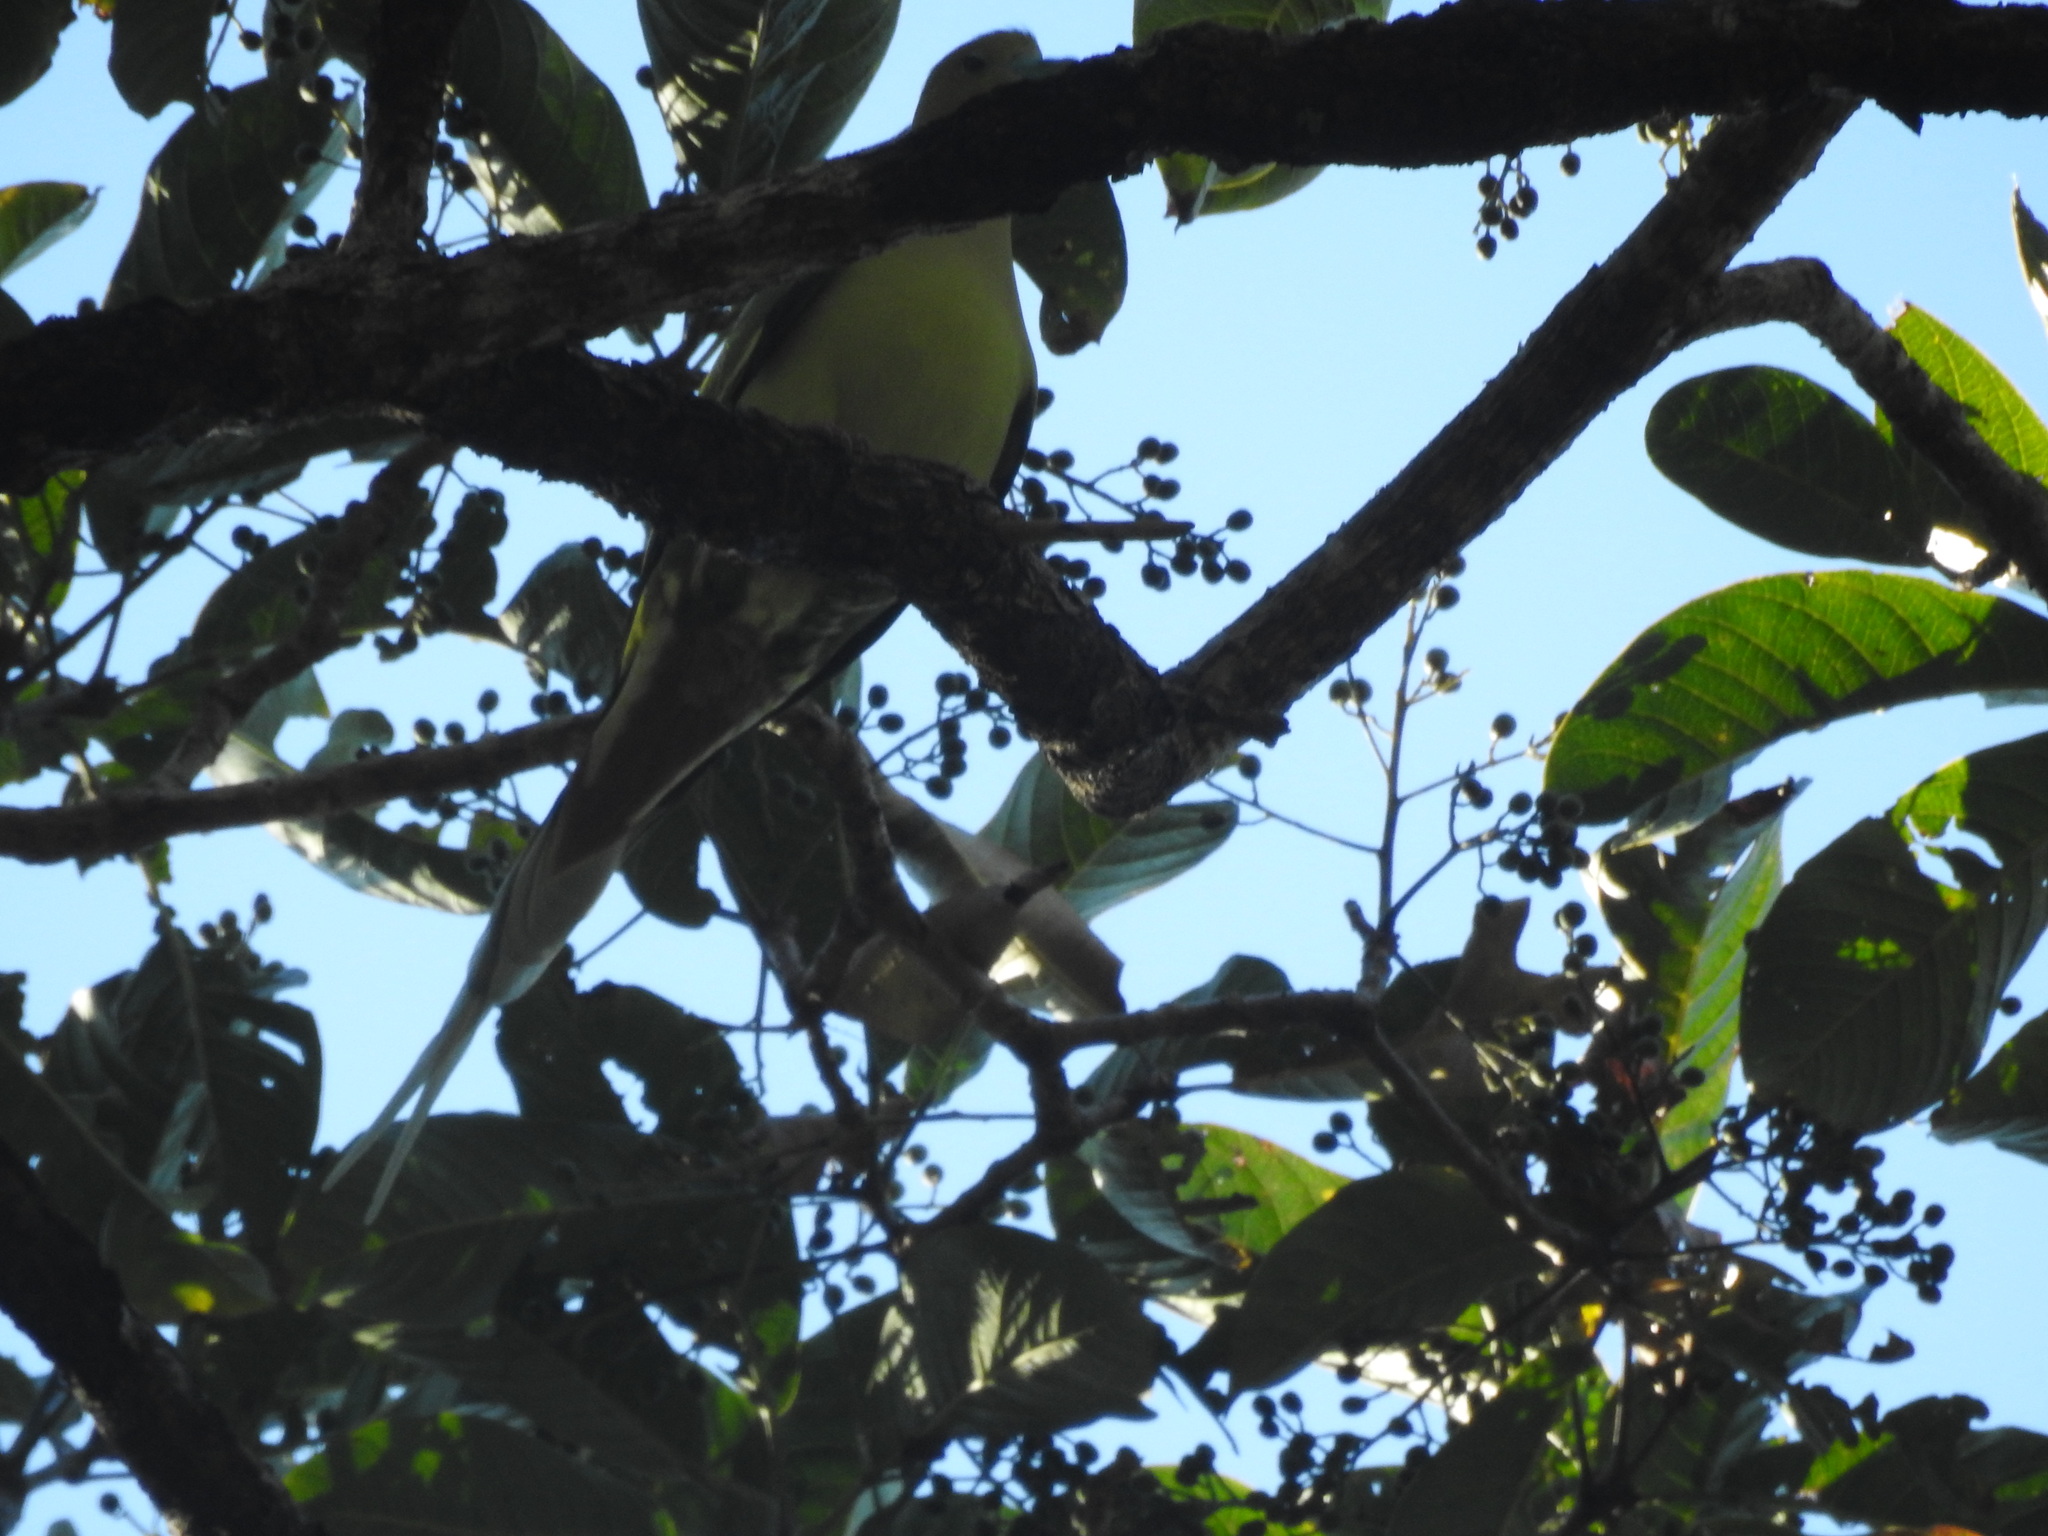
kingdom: Animalia
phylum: Chordata
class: Aves
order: Columbiformes
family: Columbidae
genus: Treron
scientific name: Treron apicauda
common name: Pin-tailed green pigeon
